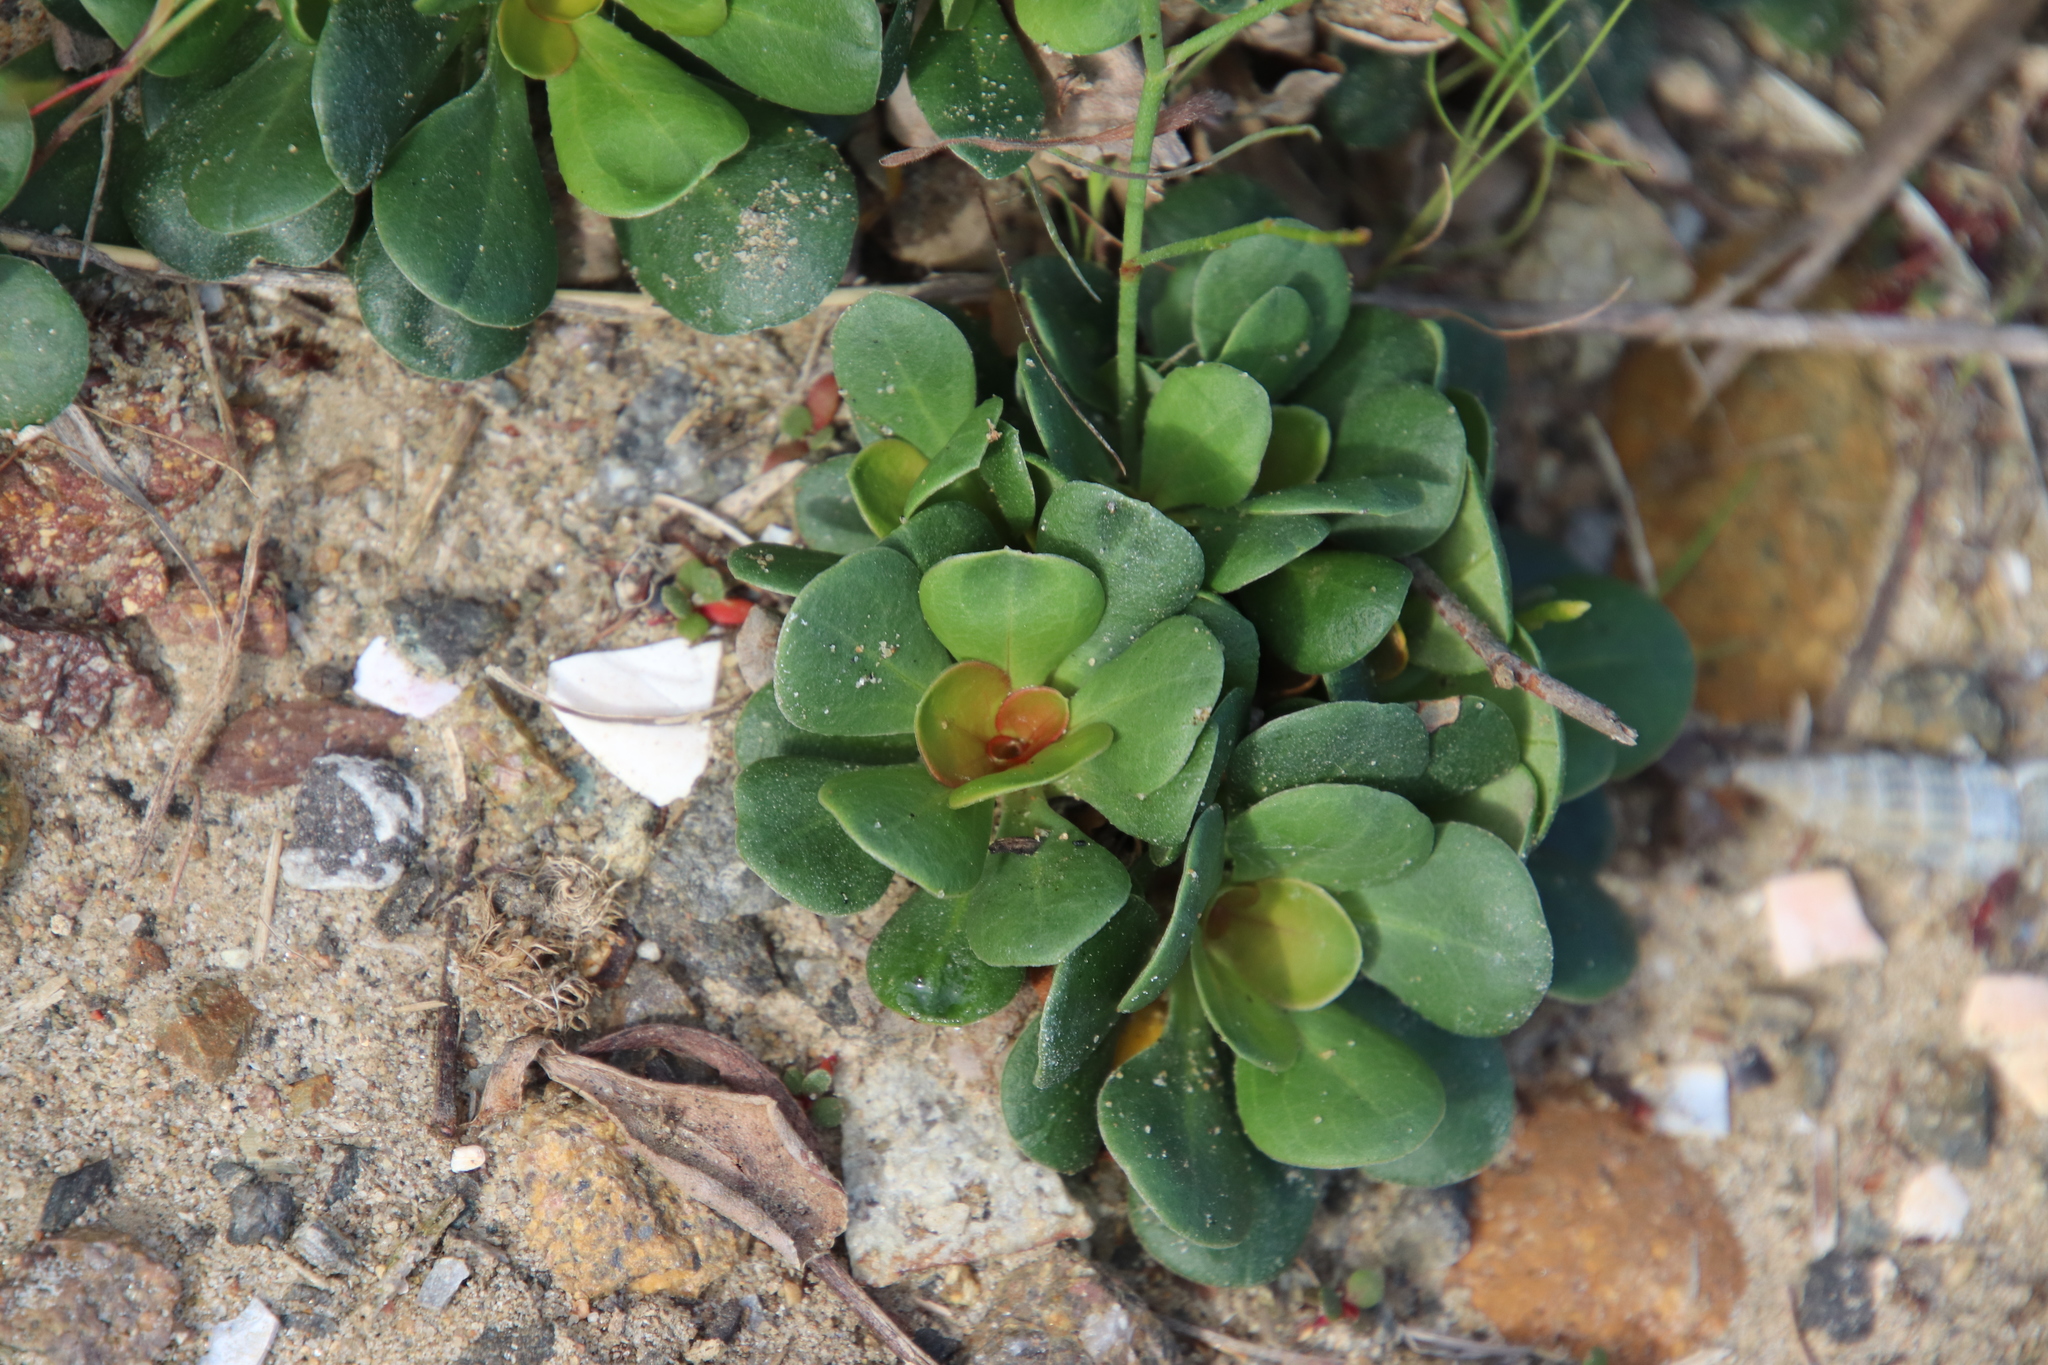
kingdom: Plantae
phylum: Tracheophyta
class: Magnoliopsida
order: Caryophyllales
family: Plumbaginaceae
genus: Limonium
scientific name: Limonium duriusculum
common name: European sea lavendar
